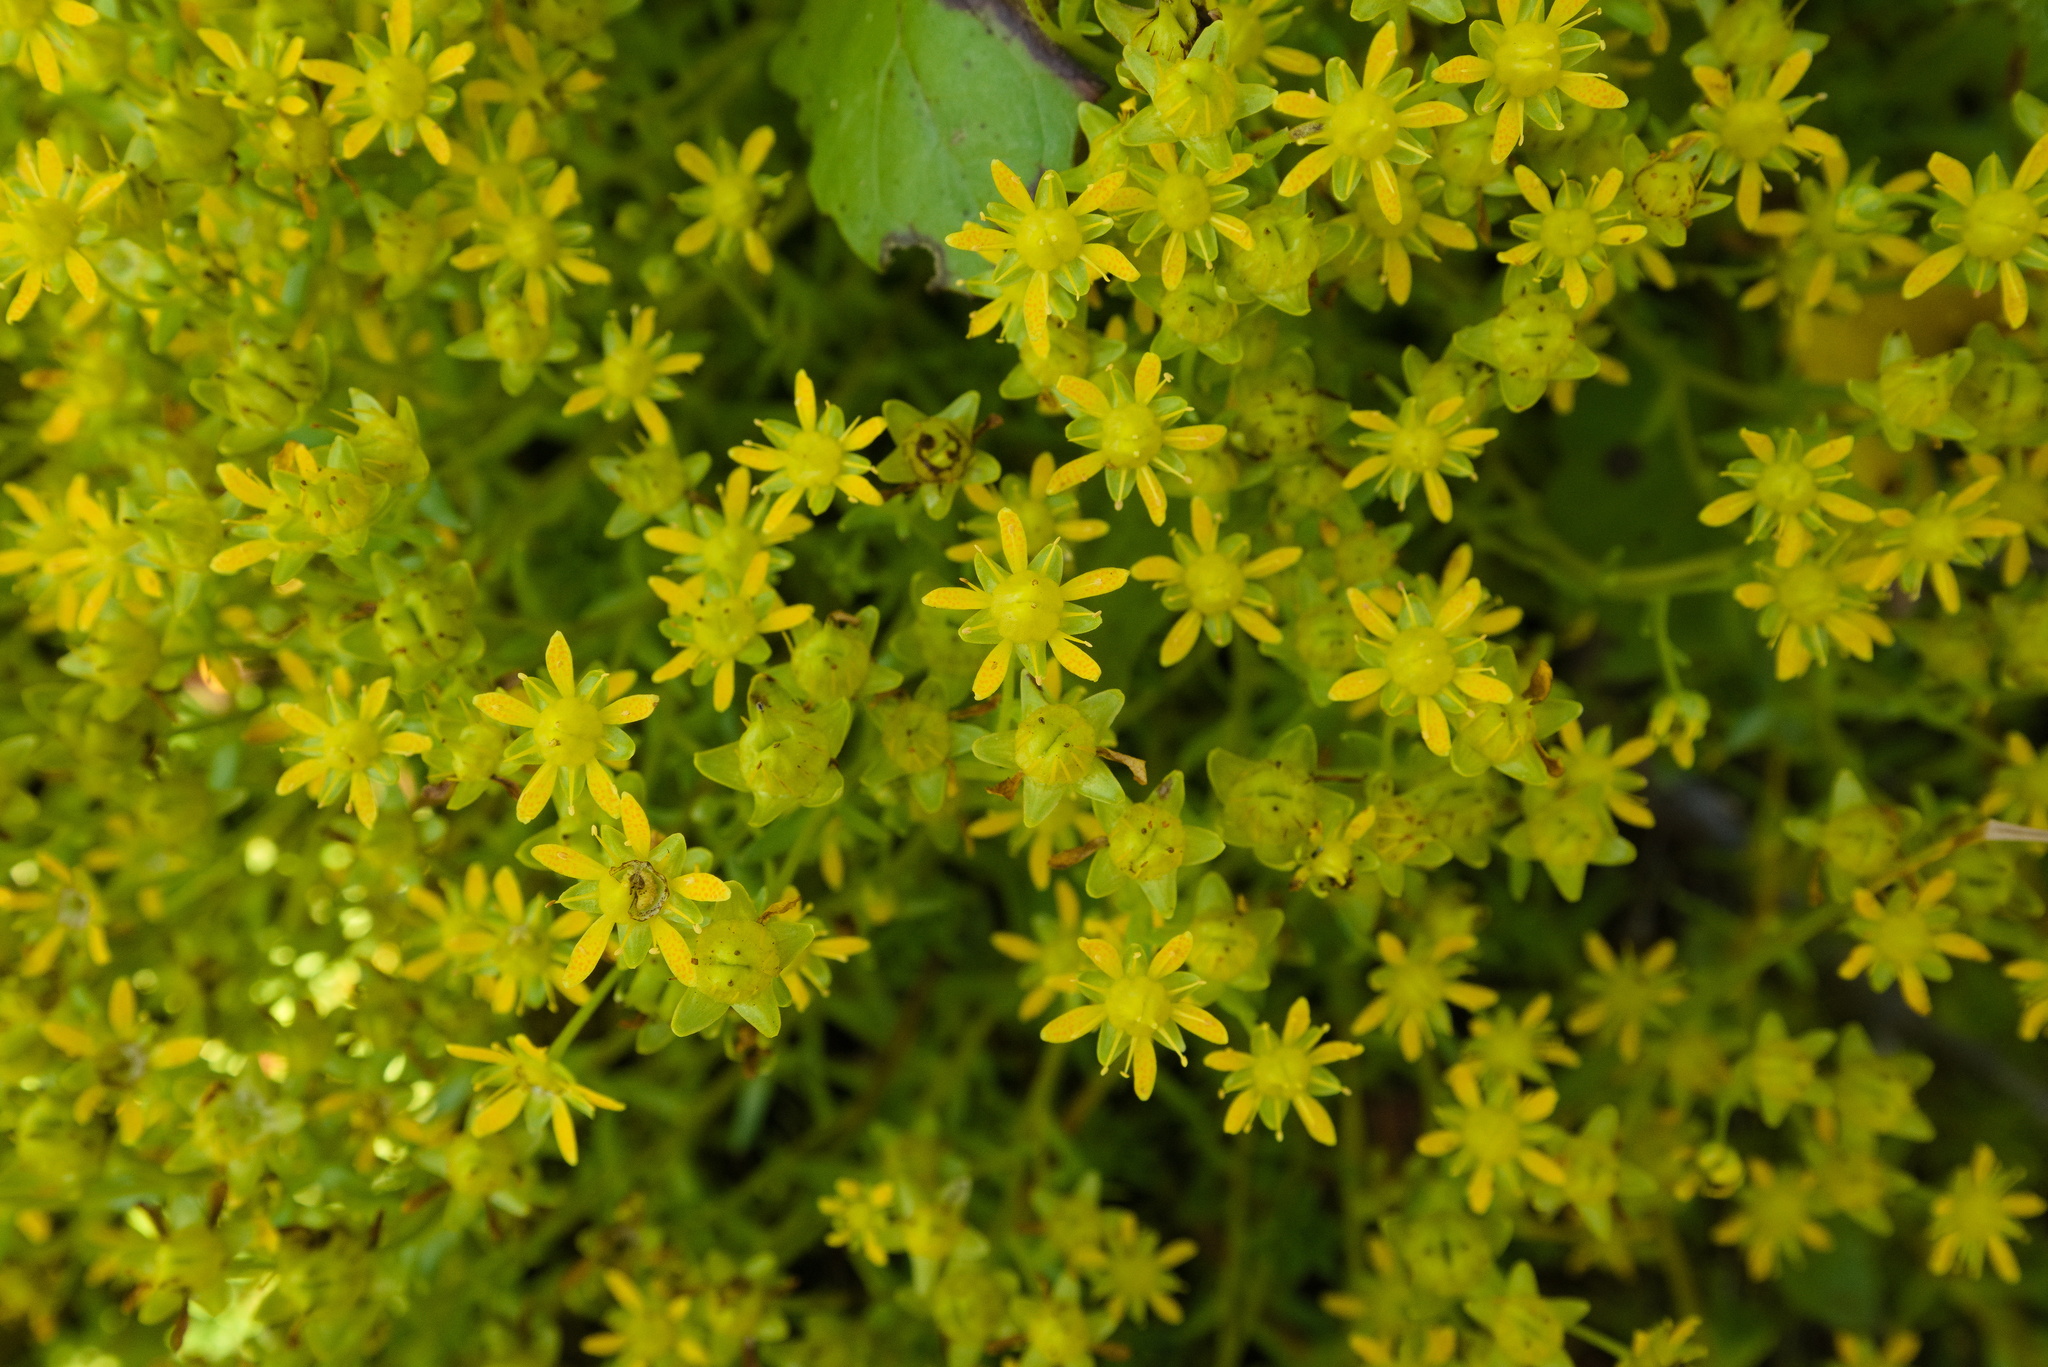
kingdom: Plantae
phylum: Tracheophyta
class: Magnoliopsida
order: Saxifragales
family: Saxifragaceae
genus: Saxifraga
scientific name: Saxifraga aizoides
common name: Yellow mountain saxifrage
